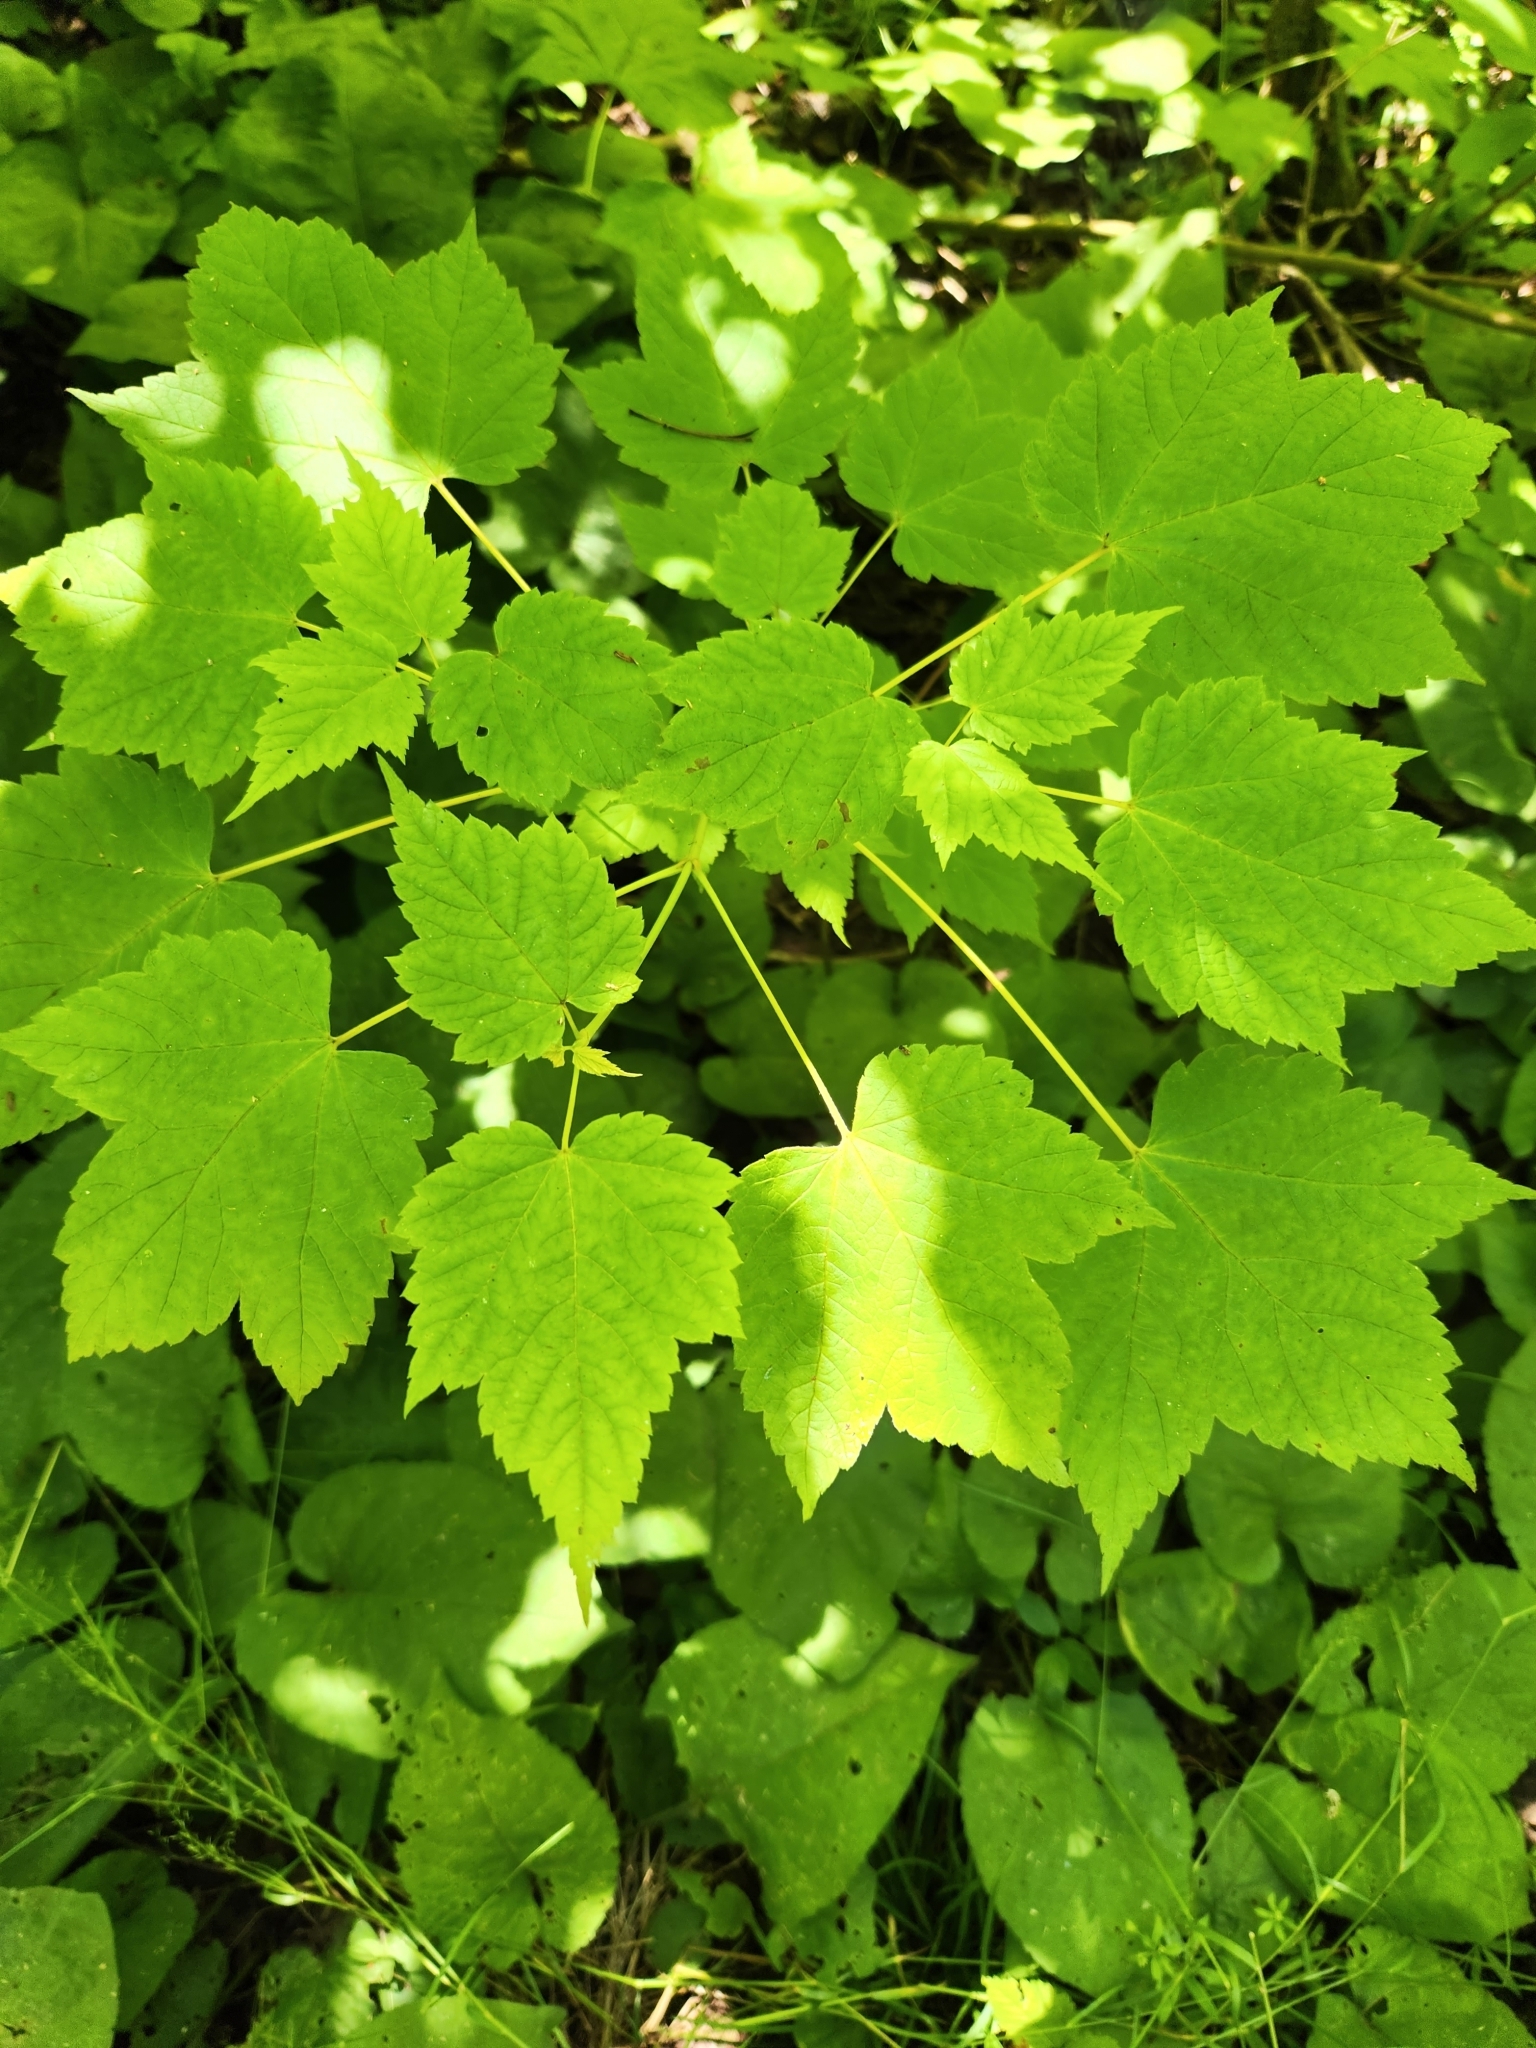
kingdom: Plantae
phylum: Tracheophyta
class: Magnoliopsida
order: Sapindales
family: Sapindaceae
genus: Acer
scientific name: Acer spicatum
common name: Mountain maple
